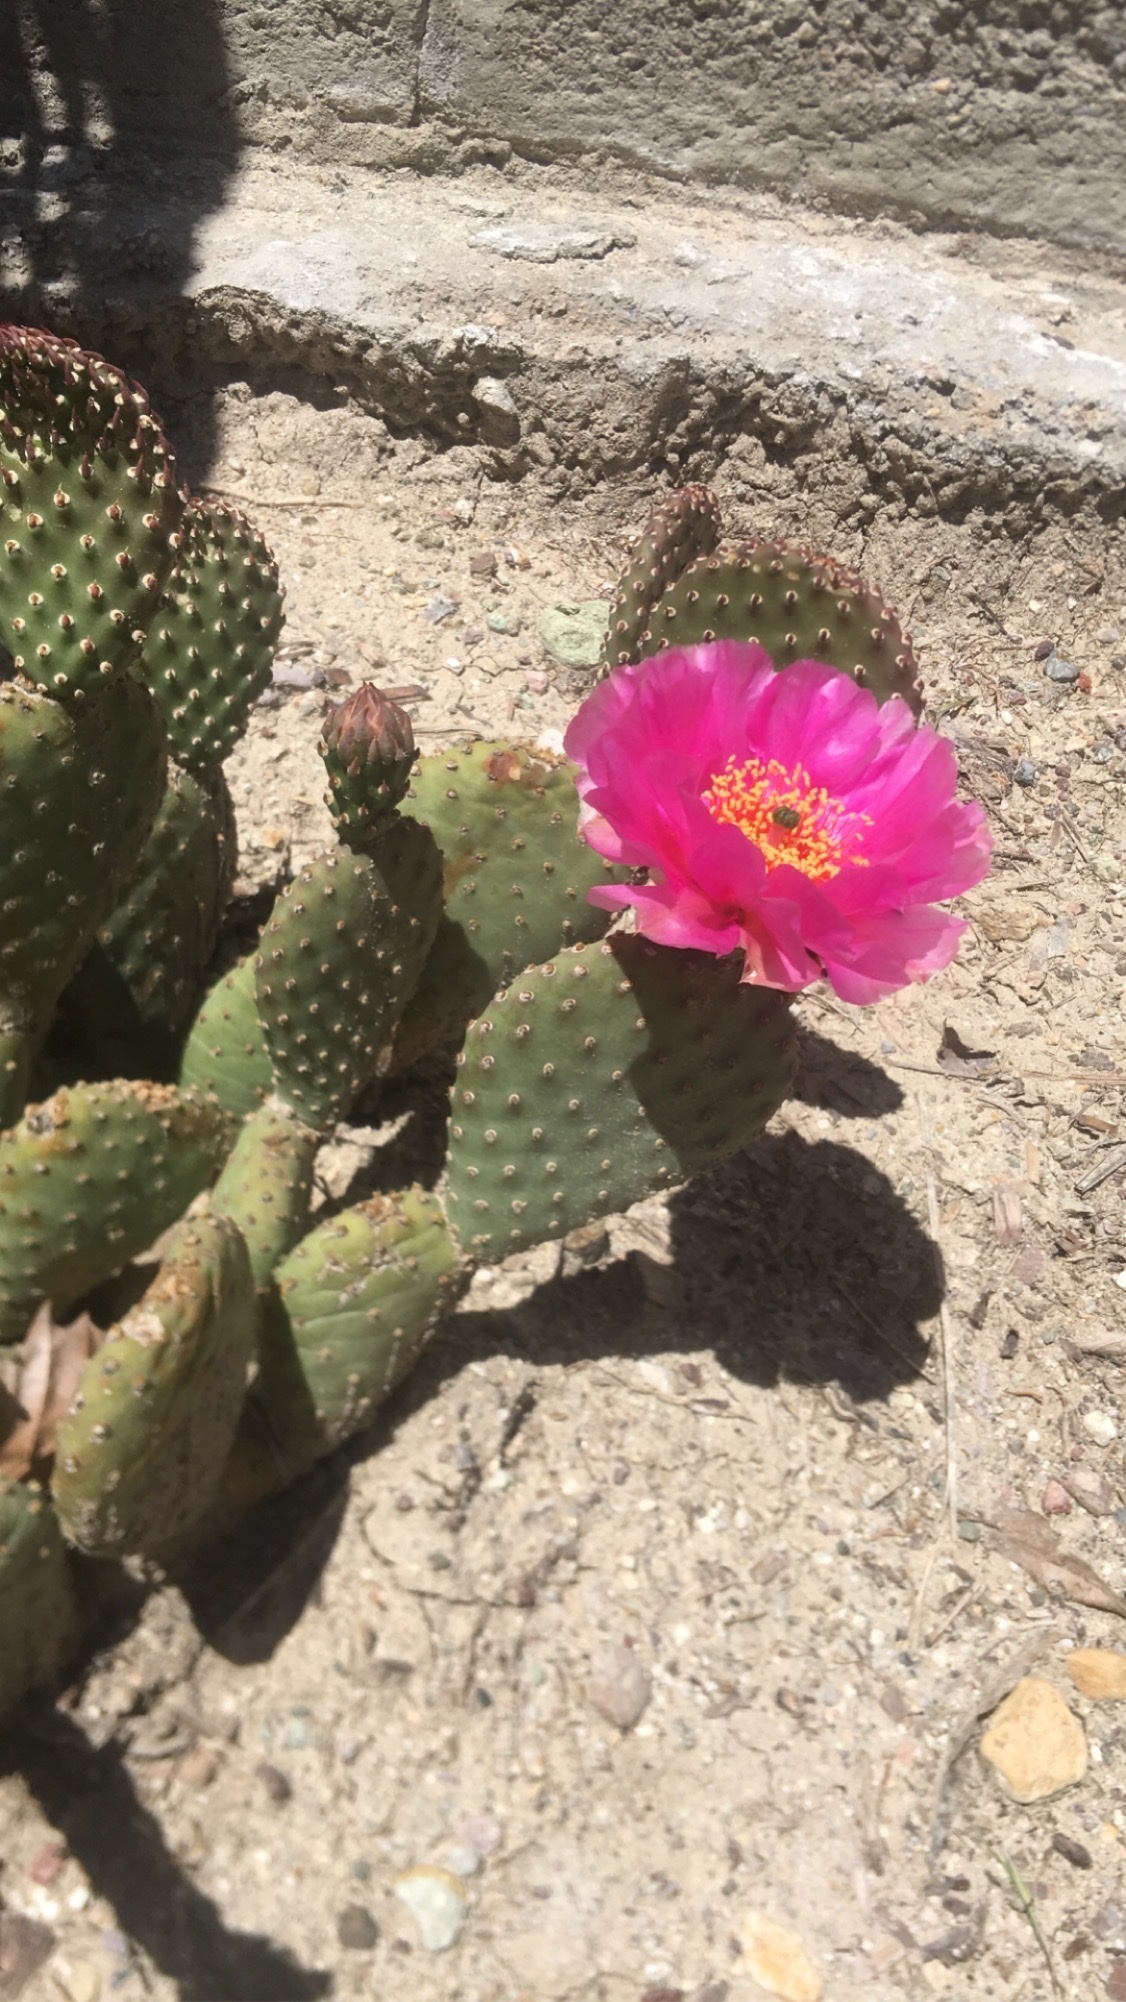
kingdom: Plantae
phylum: Tracheophyta
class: Magnoliopsida
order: Caryophyllales
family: Cactaceae
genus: Opuntia
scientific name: Opuntia basilaris
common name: Beavertail prickly-pear
